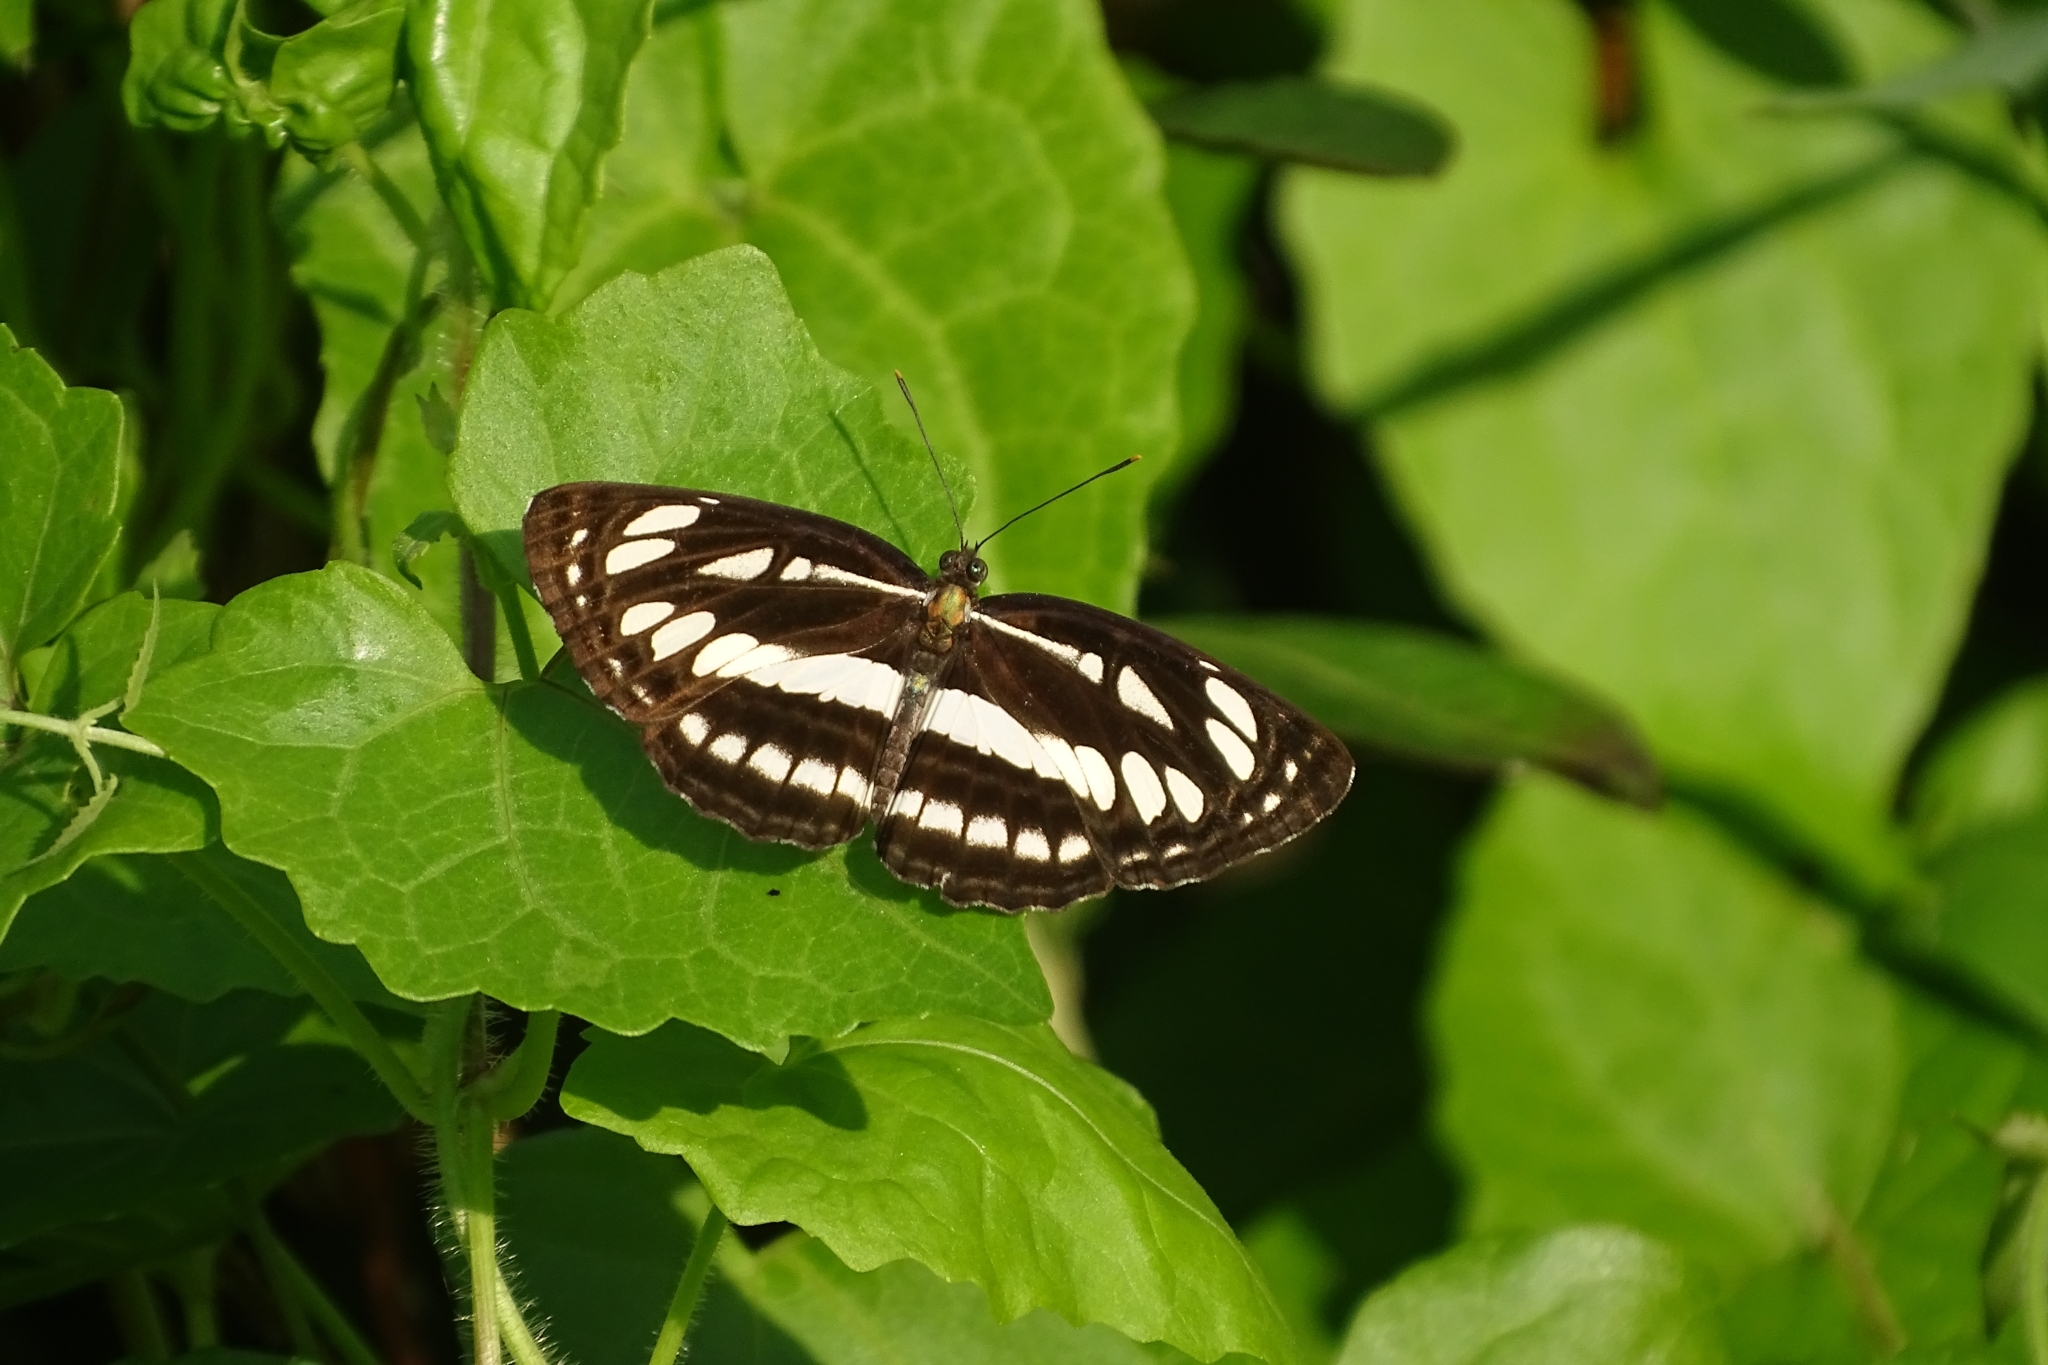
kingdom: Animalia
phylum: Arthropoda
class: Insecta
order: Lepidoptera
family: Nymphalidae
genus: Neptis
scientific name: Neptis hylas
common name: Common sailer
